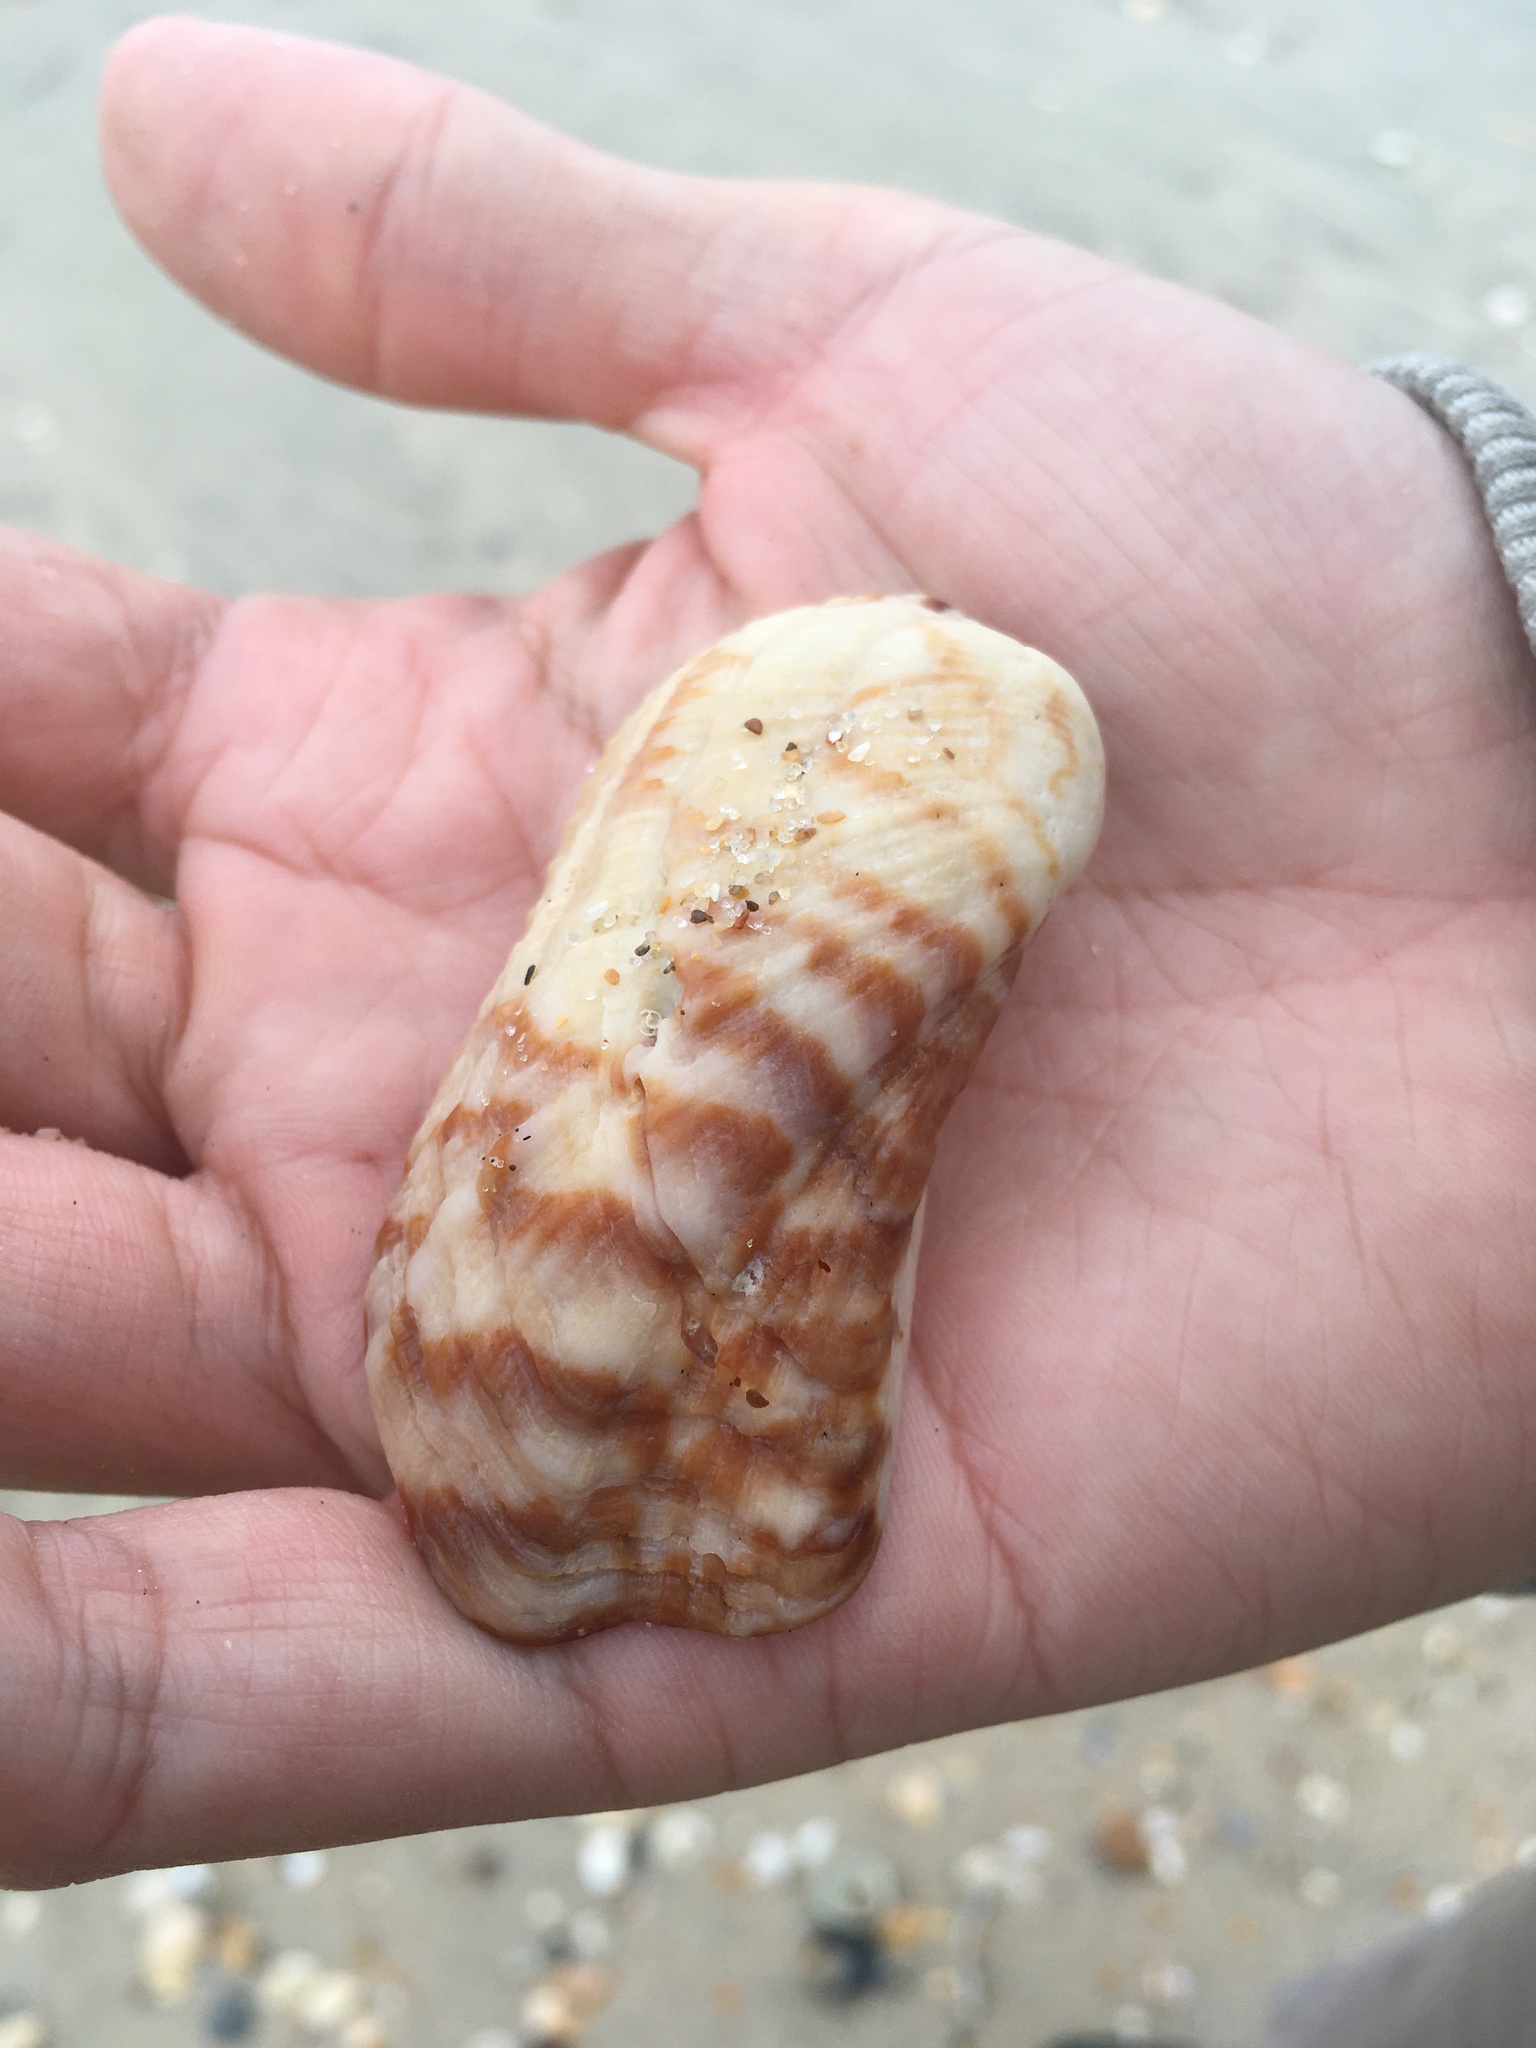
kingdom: Animalia
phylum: Mollusca
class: Bivalvia
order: Arcida
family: Arcidae
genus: Arca
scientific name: Arca zebra
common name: Atlantic turkey wing
